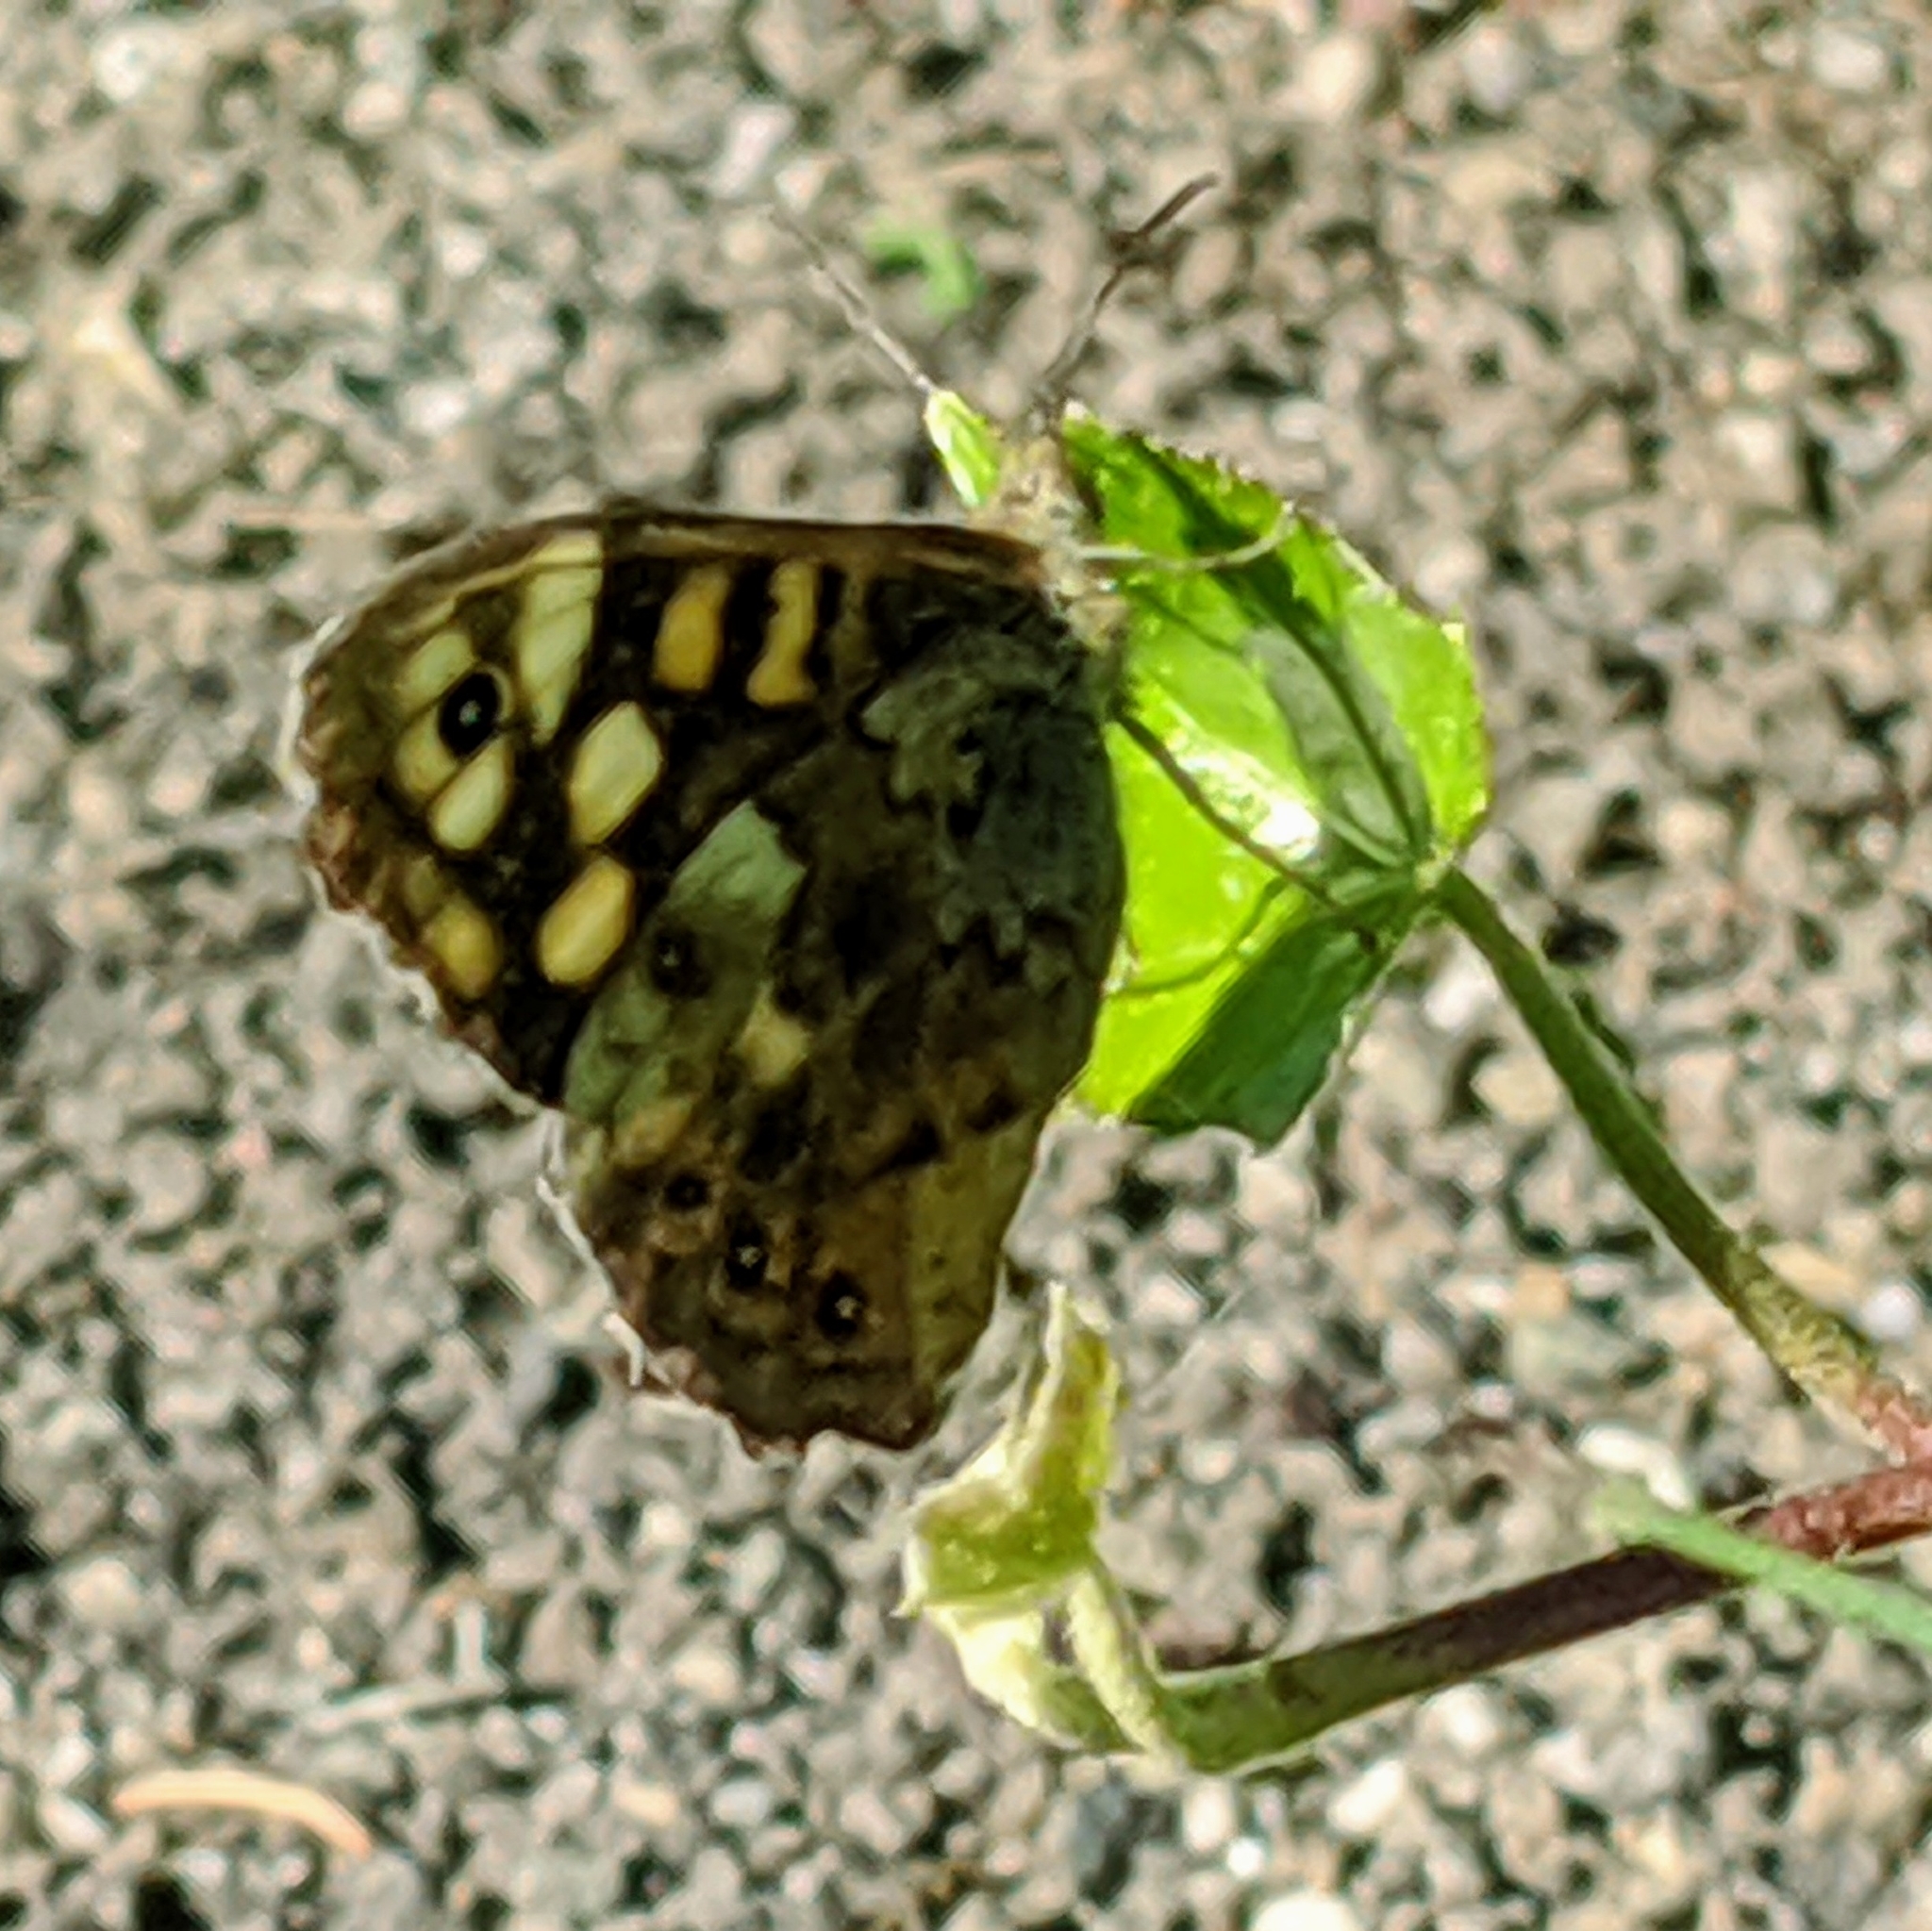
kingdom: Animalia
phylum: Arthropoda
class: Insecta
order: Lepidoptera
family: Nymphalidae
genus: Pararge
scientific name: Pararge aegeria
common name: Speckled wood
